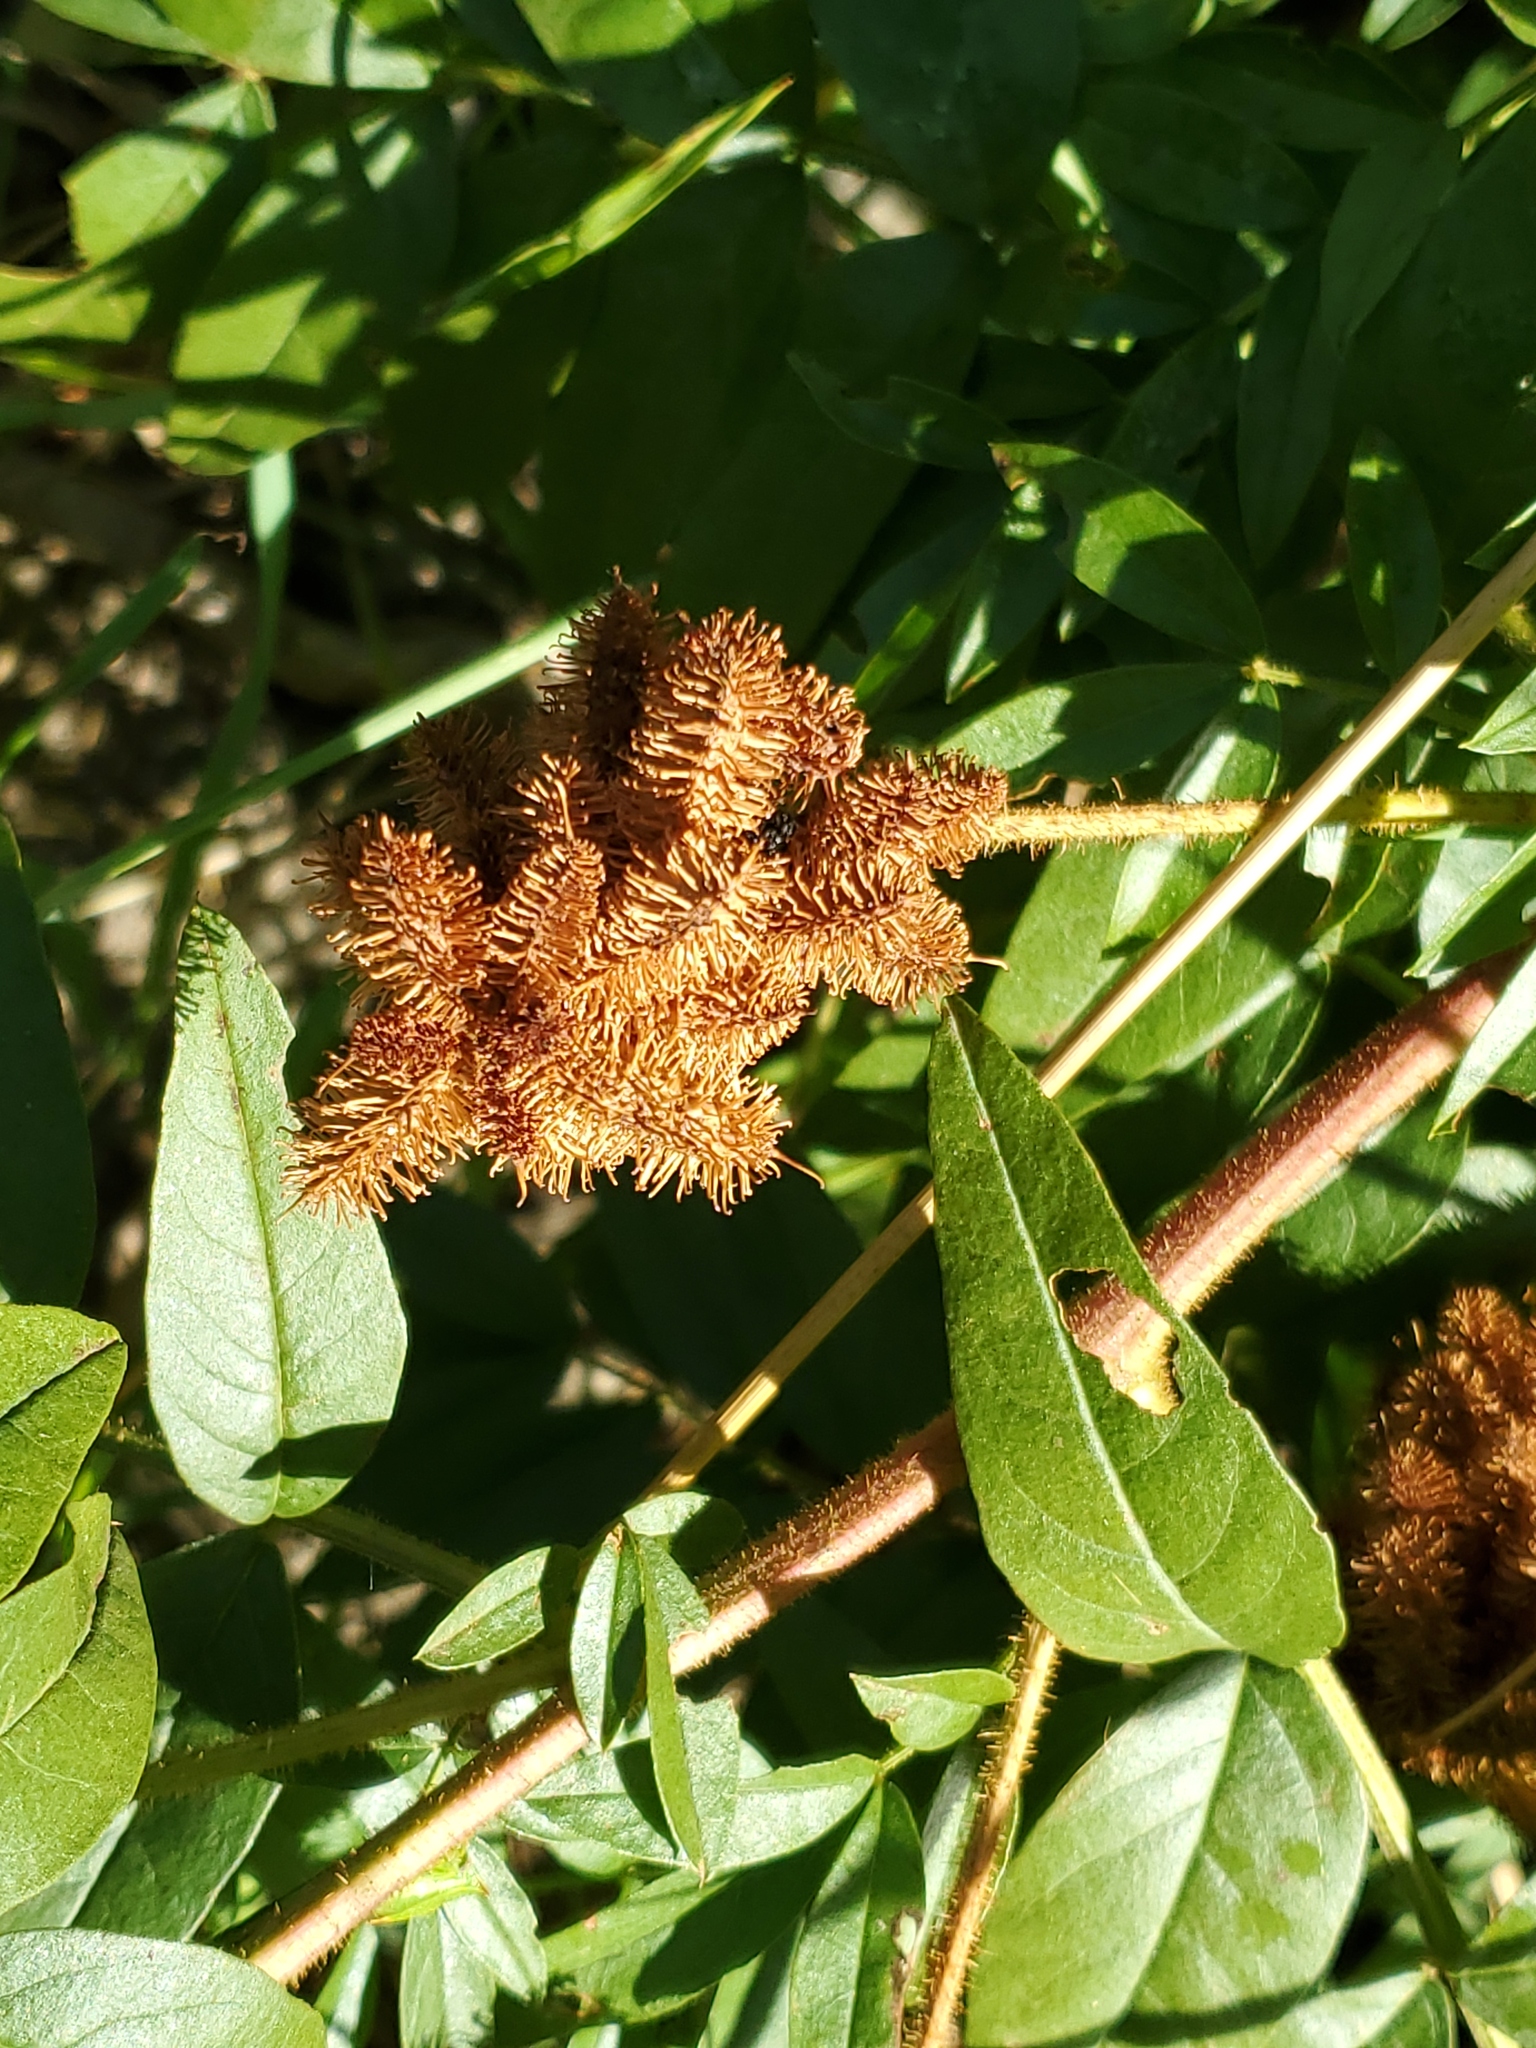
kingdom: Plantae
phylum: Tracheophyta
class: Magnoliopsida
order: Fabales
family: Fabaceae
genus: Glycyrrhiza
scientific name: Glycyrrhiza lepidota
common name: American liquorice
